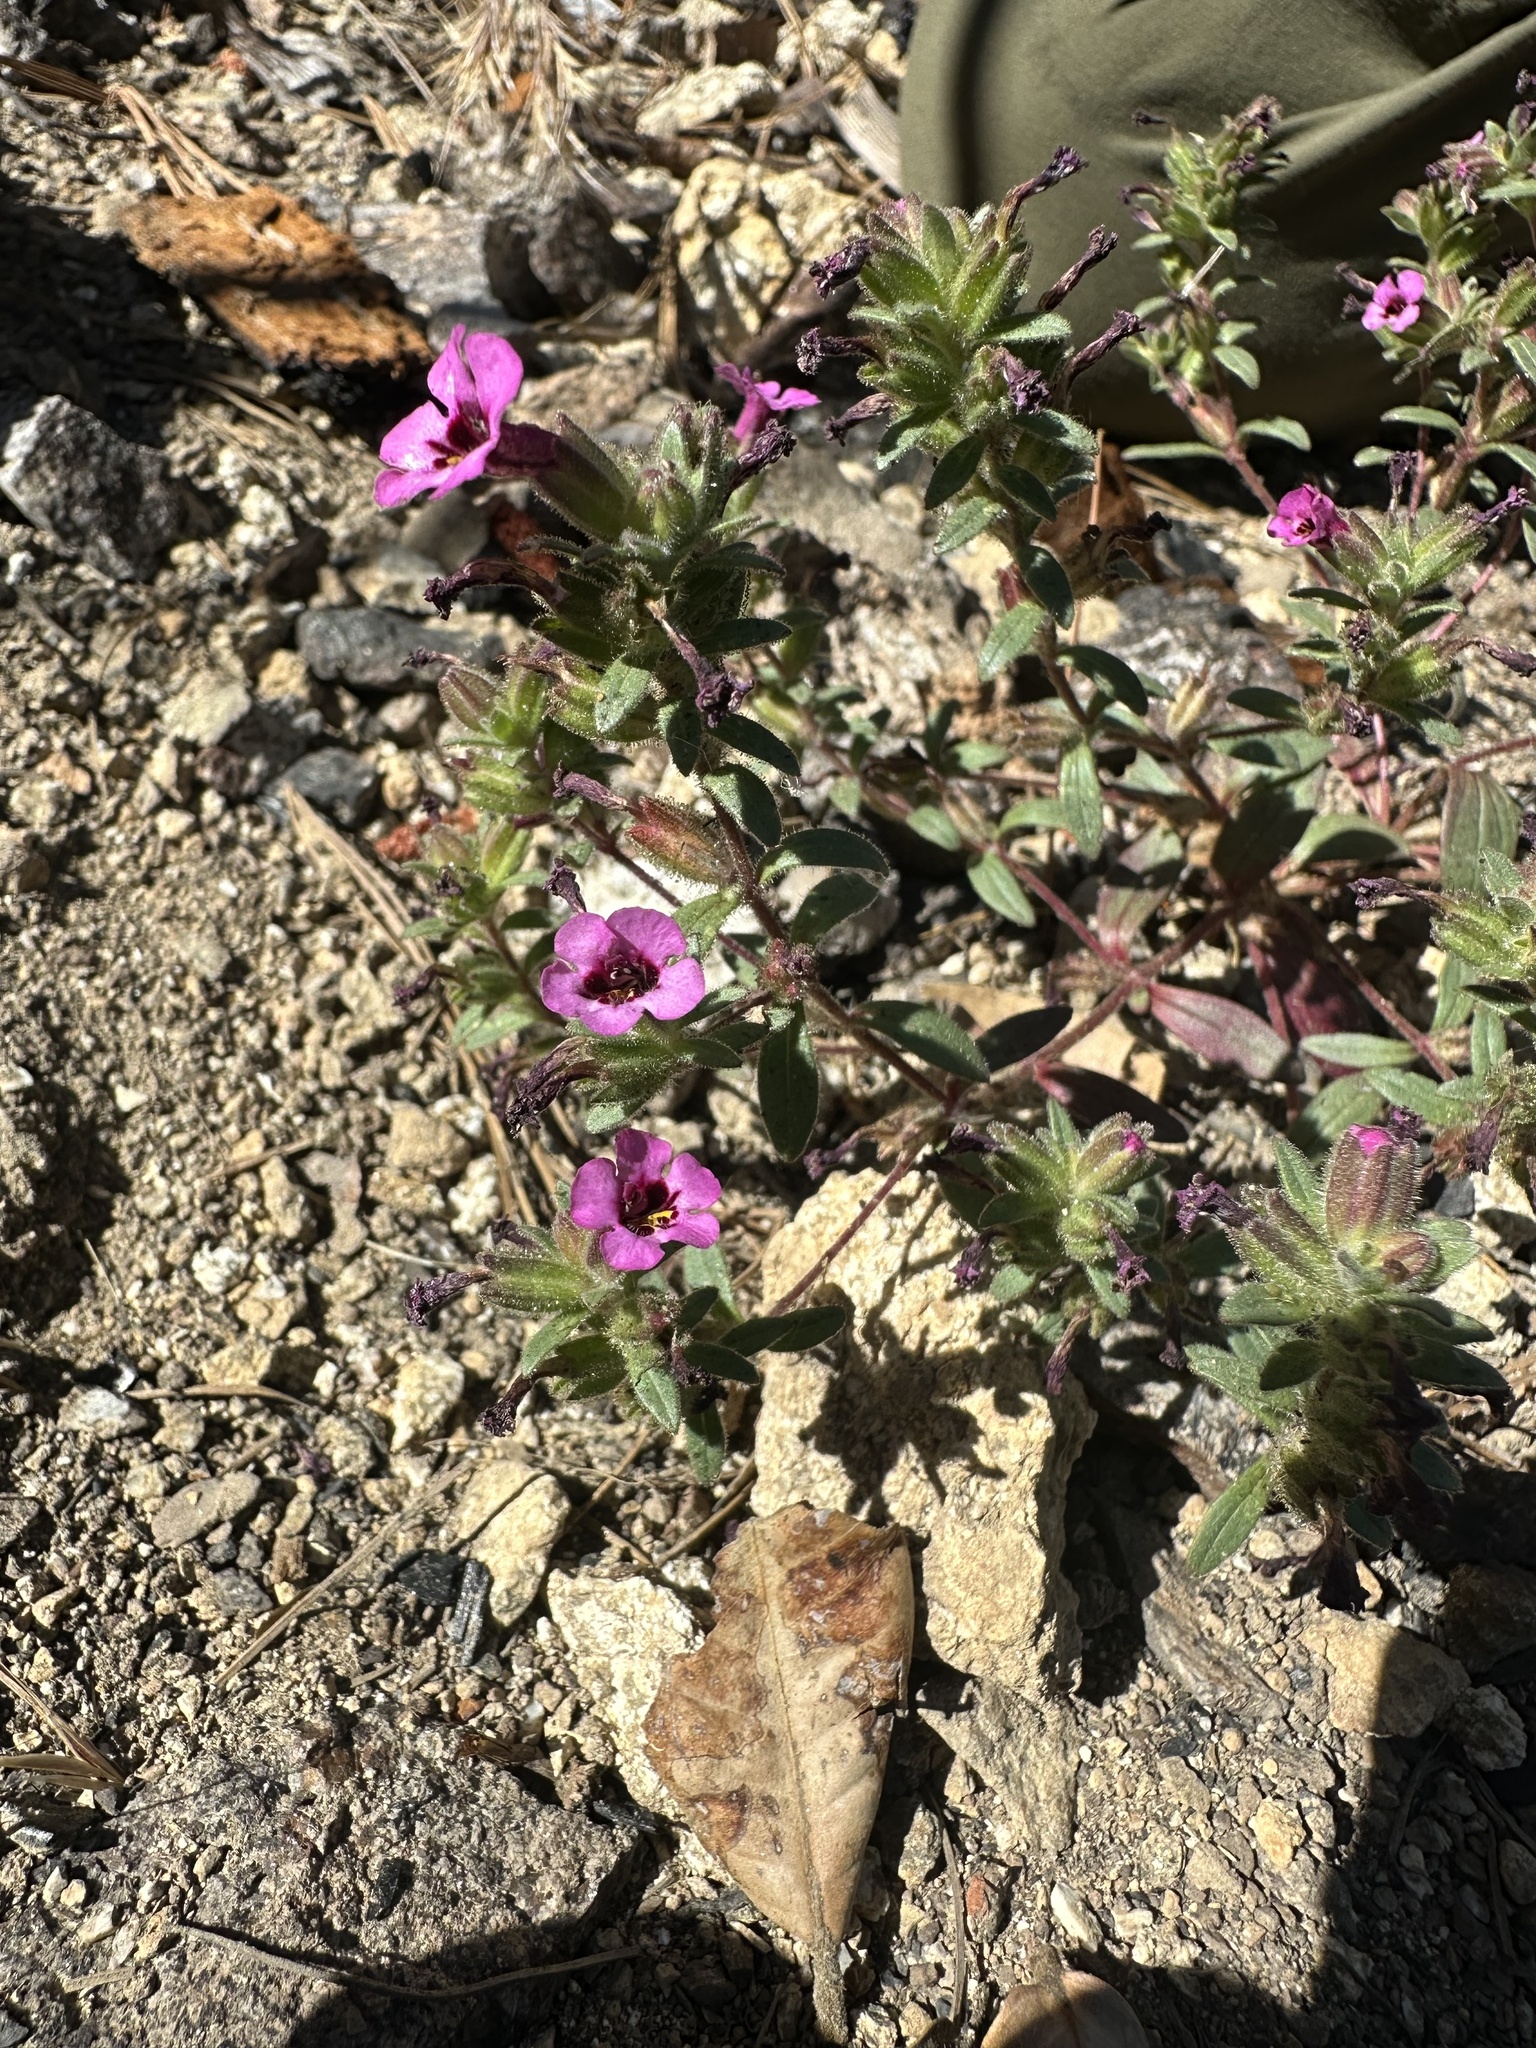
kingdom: Plantae
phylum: Tracheophyta
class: Magnoliopsida
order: Lamiales
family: Phrymaceae
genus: Diplacus
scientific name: Diplacus fremontii
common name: Fremont's monkey-flower
